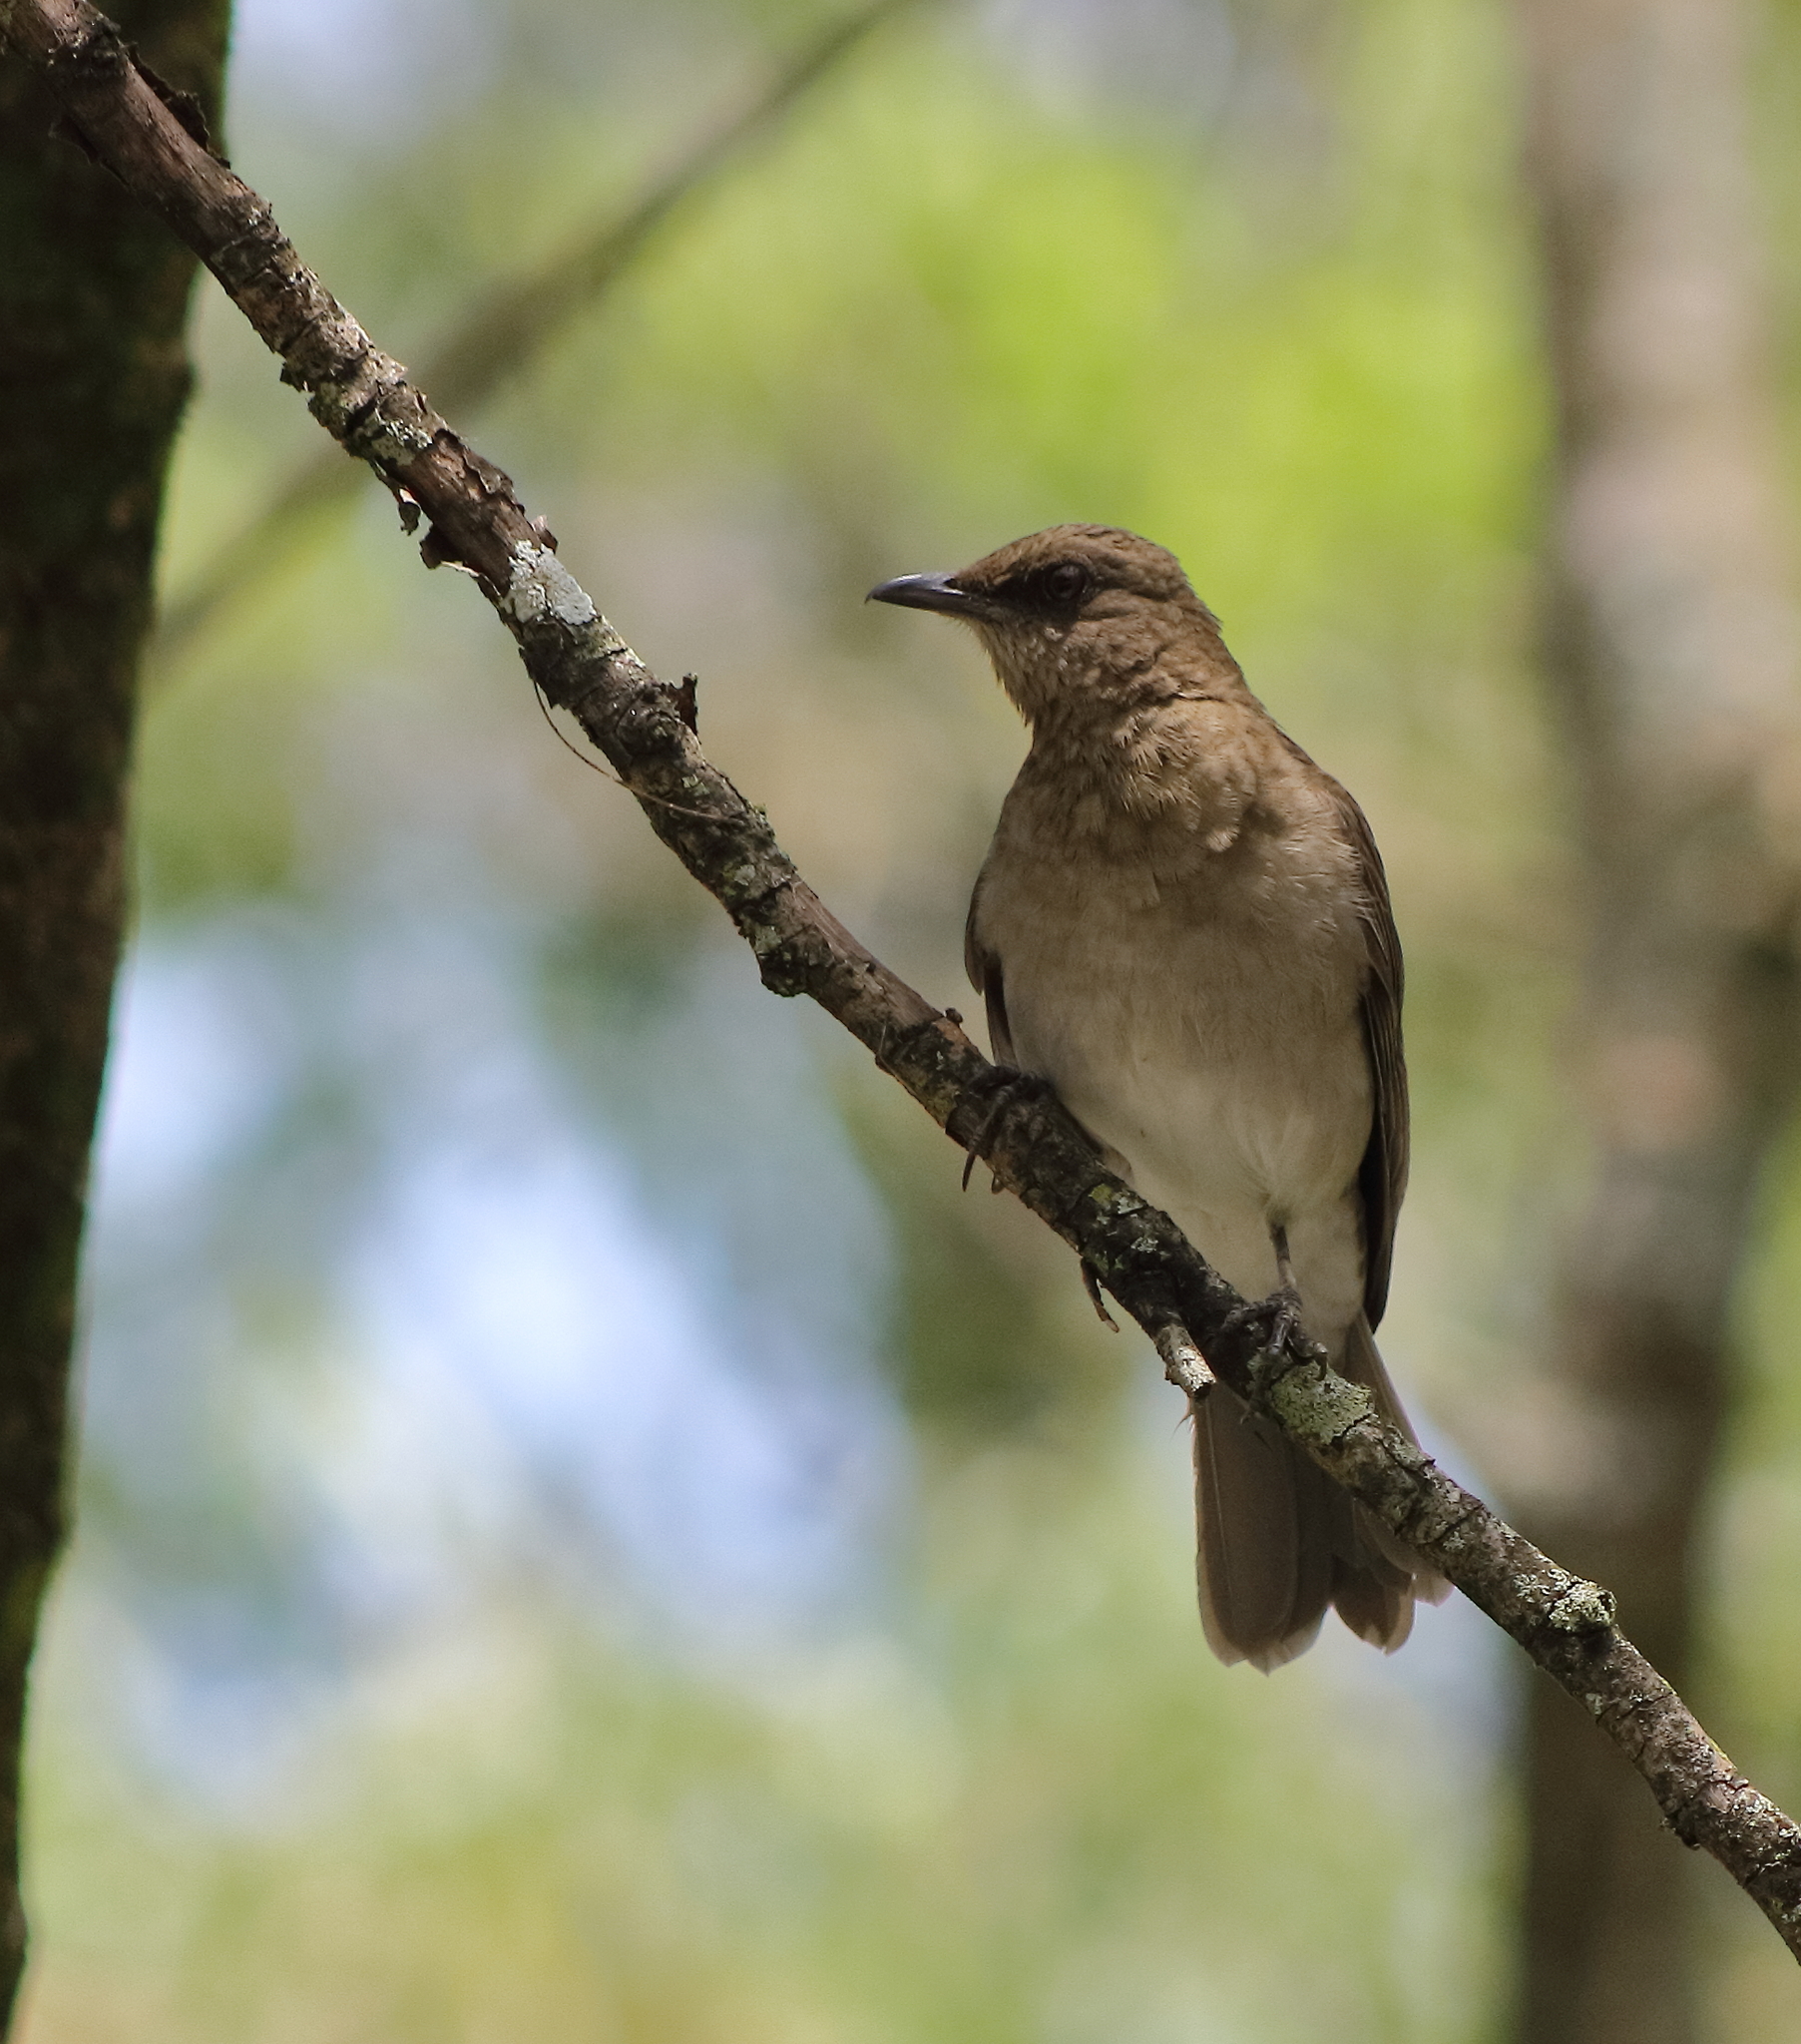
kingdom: Animalia
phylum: Chordata
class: Aves
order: Passeriformes
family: Turdidae
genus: Turdus
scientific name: Turdus ignobilis
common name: Black-billed thrush
